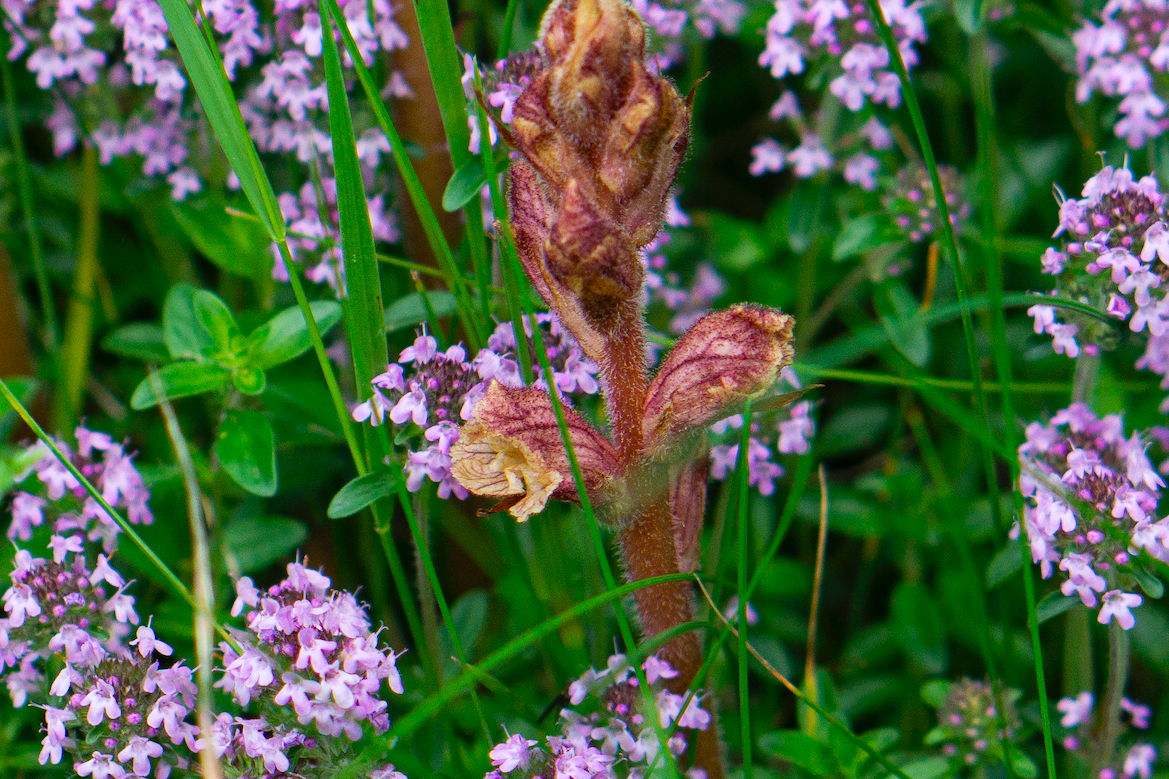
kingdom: Plantae
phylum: Tracheophyta
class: Magnoliopsida
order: Lamiales
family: Orobanchaceae
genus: Orobanche
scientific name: Orobanche alba
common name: Thyme broomrape
